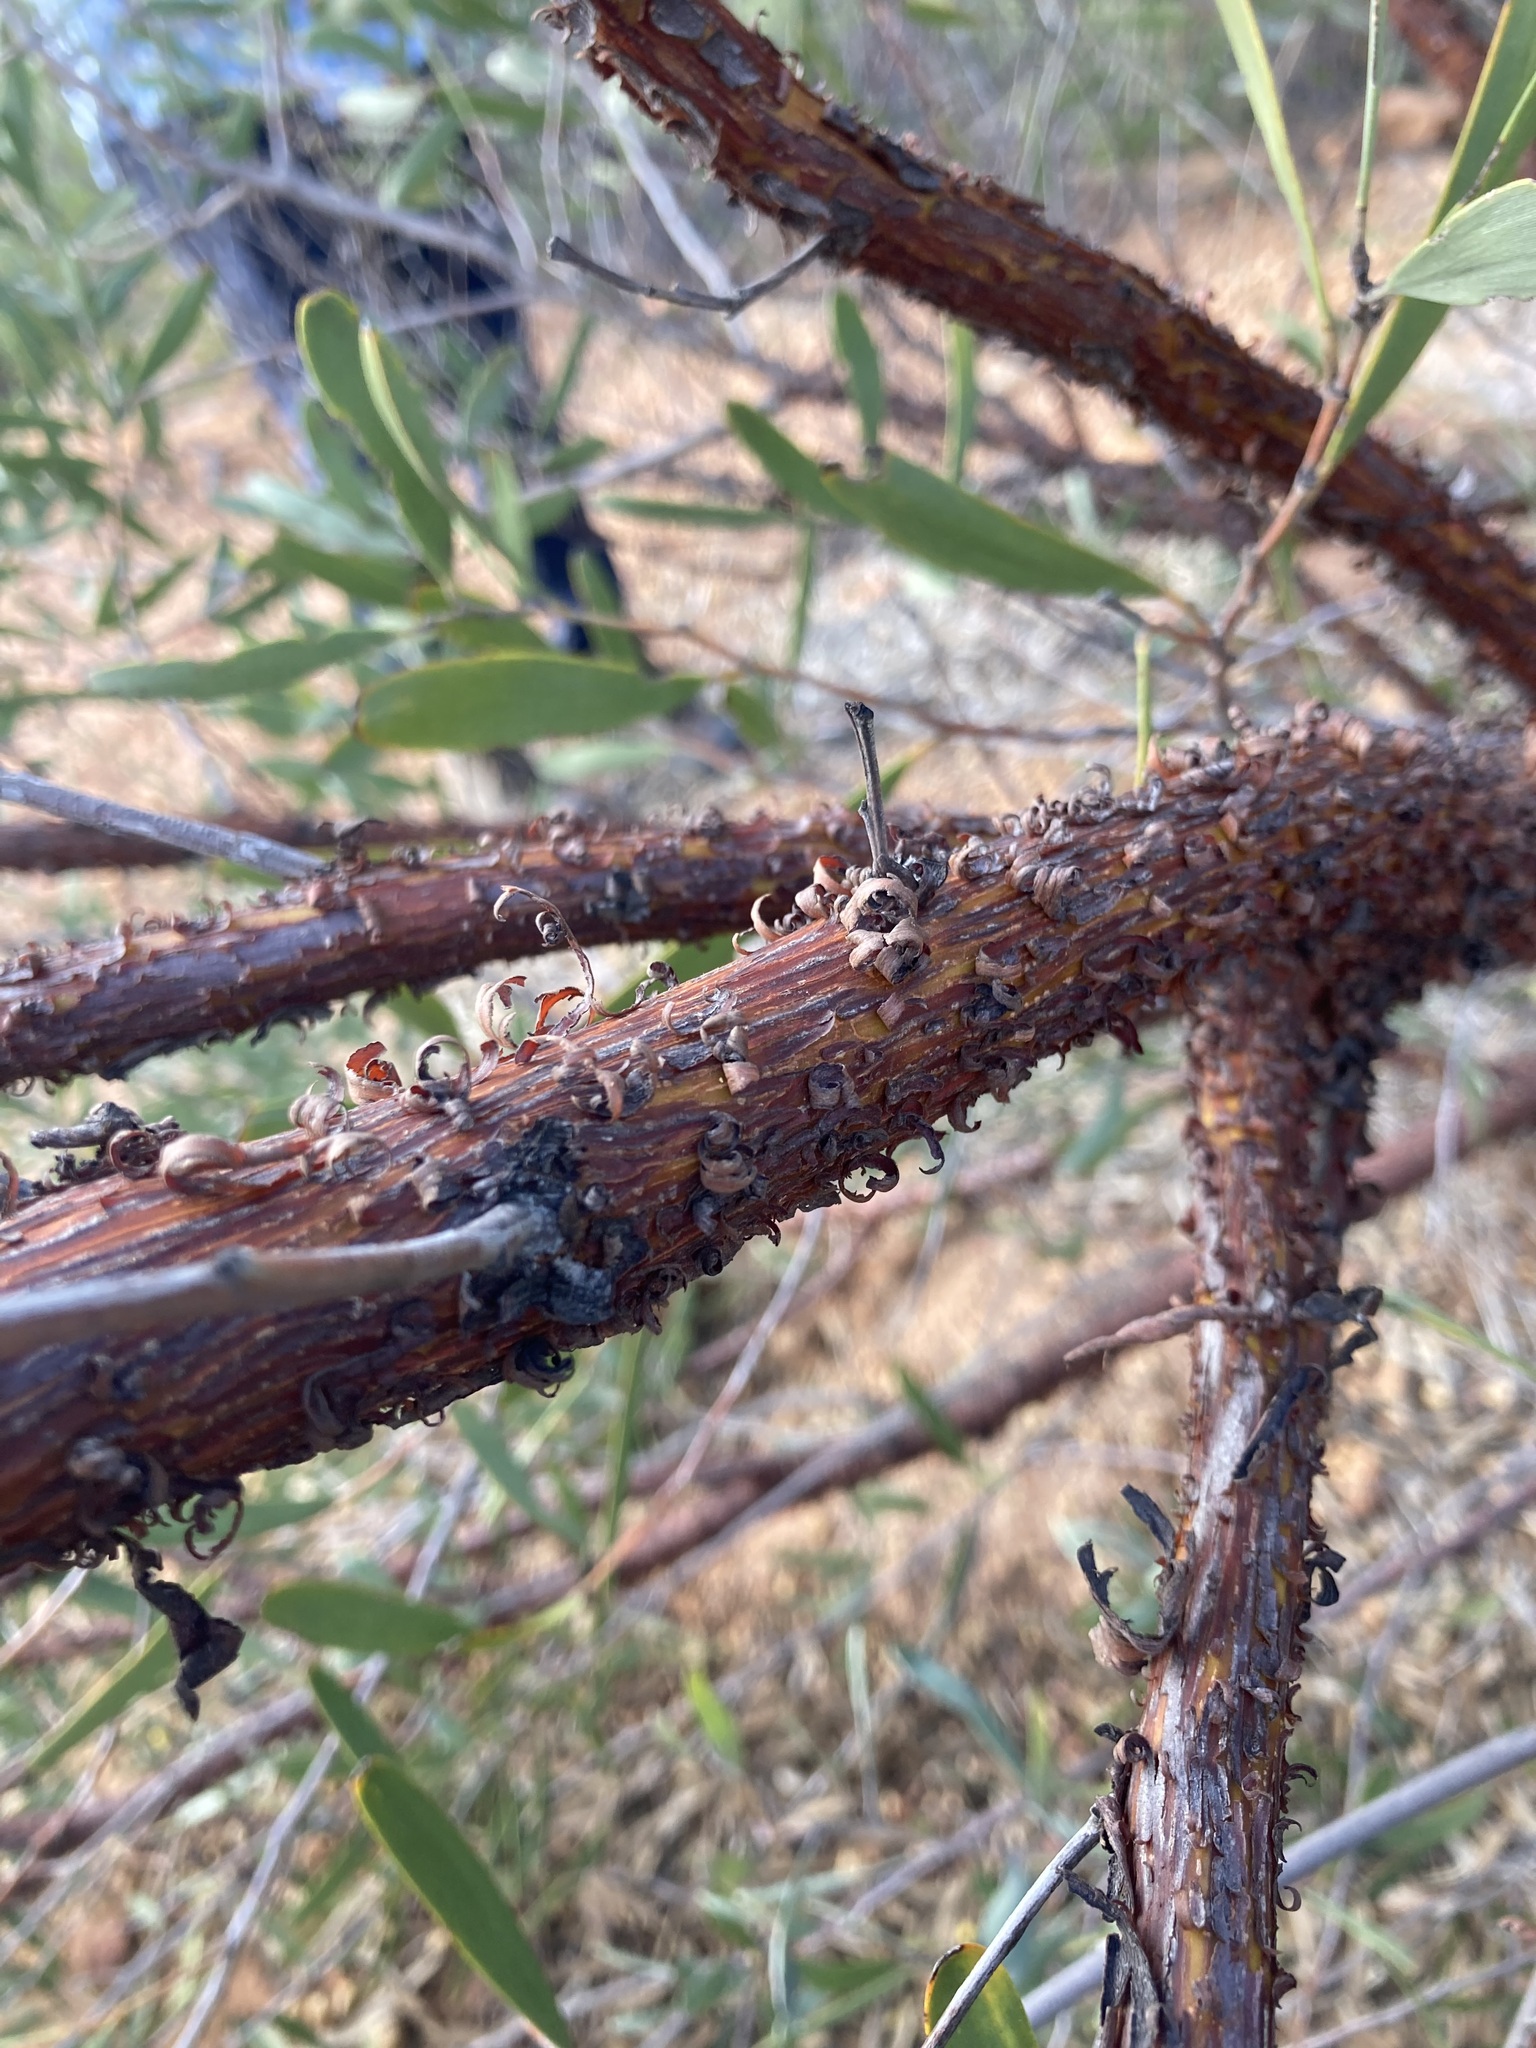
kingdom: Plantae
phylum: Tracheophyta
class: Magnoliopsida
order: Fabales
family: Fabaceae
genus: Acacia
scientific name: Acacia rhodophloia
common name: Minni ritchi
